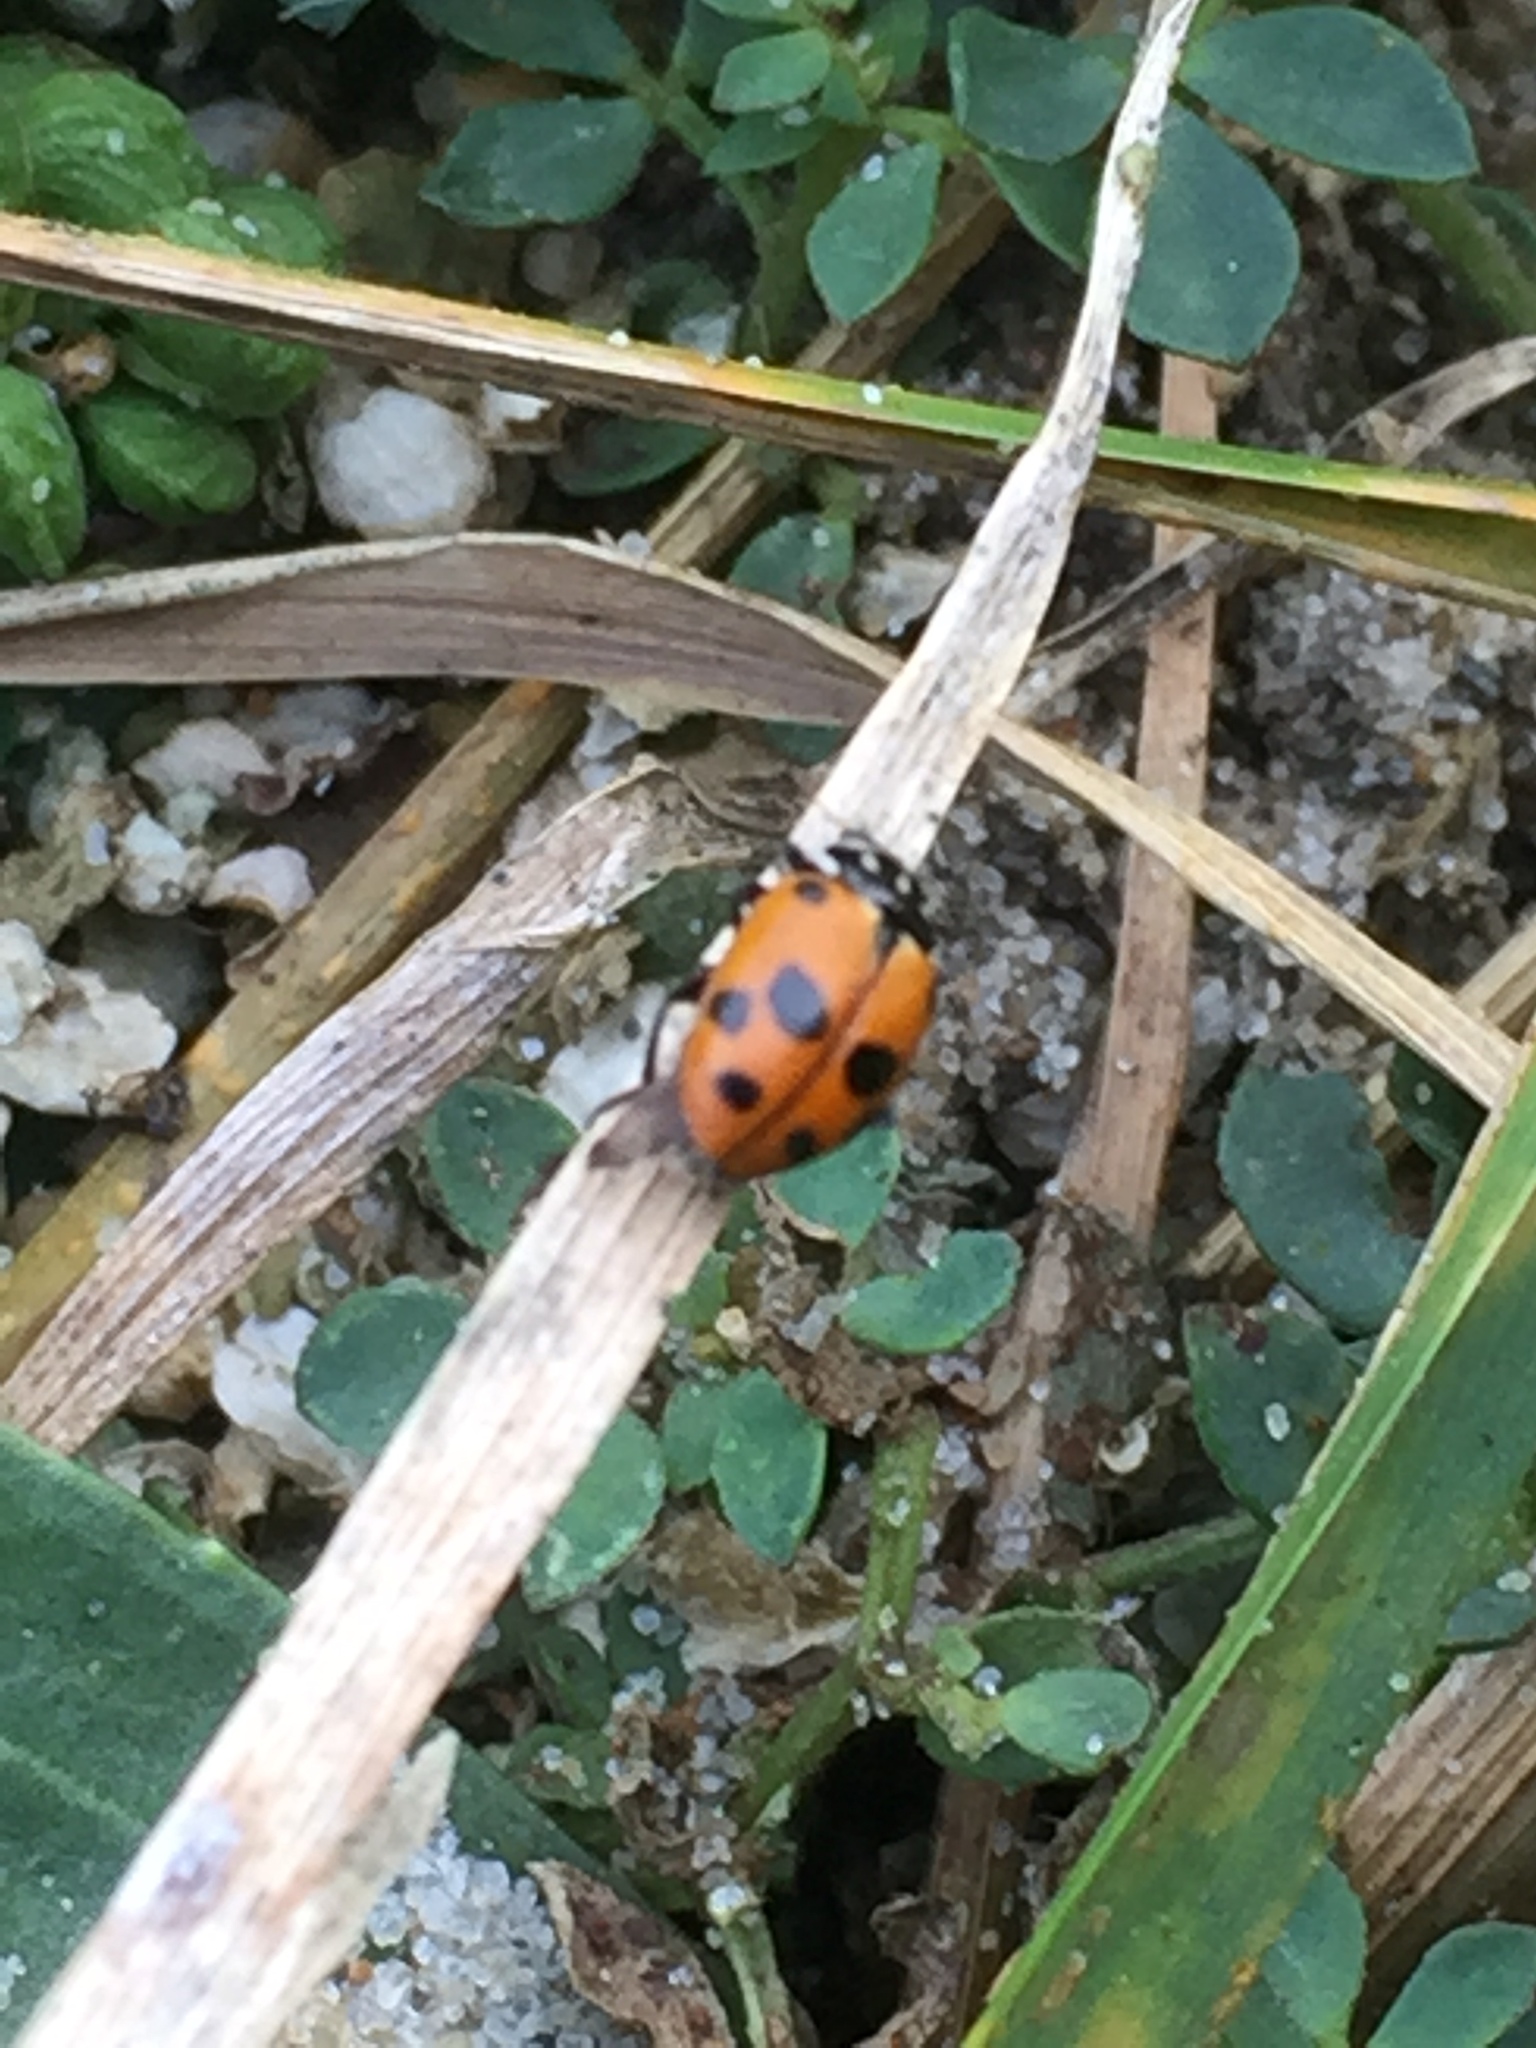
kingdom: Animalia
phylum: Arthropoda
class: Insecta
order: Coleoptera
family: Coccinellidae
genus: Hippodamia
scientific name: Hippodamia variegata
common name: Ladybird beetle
